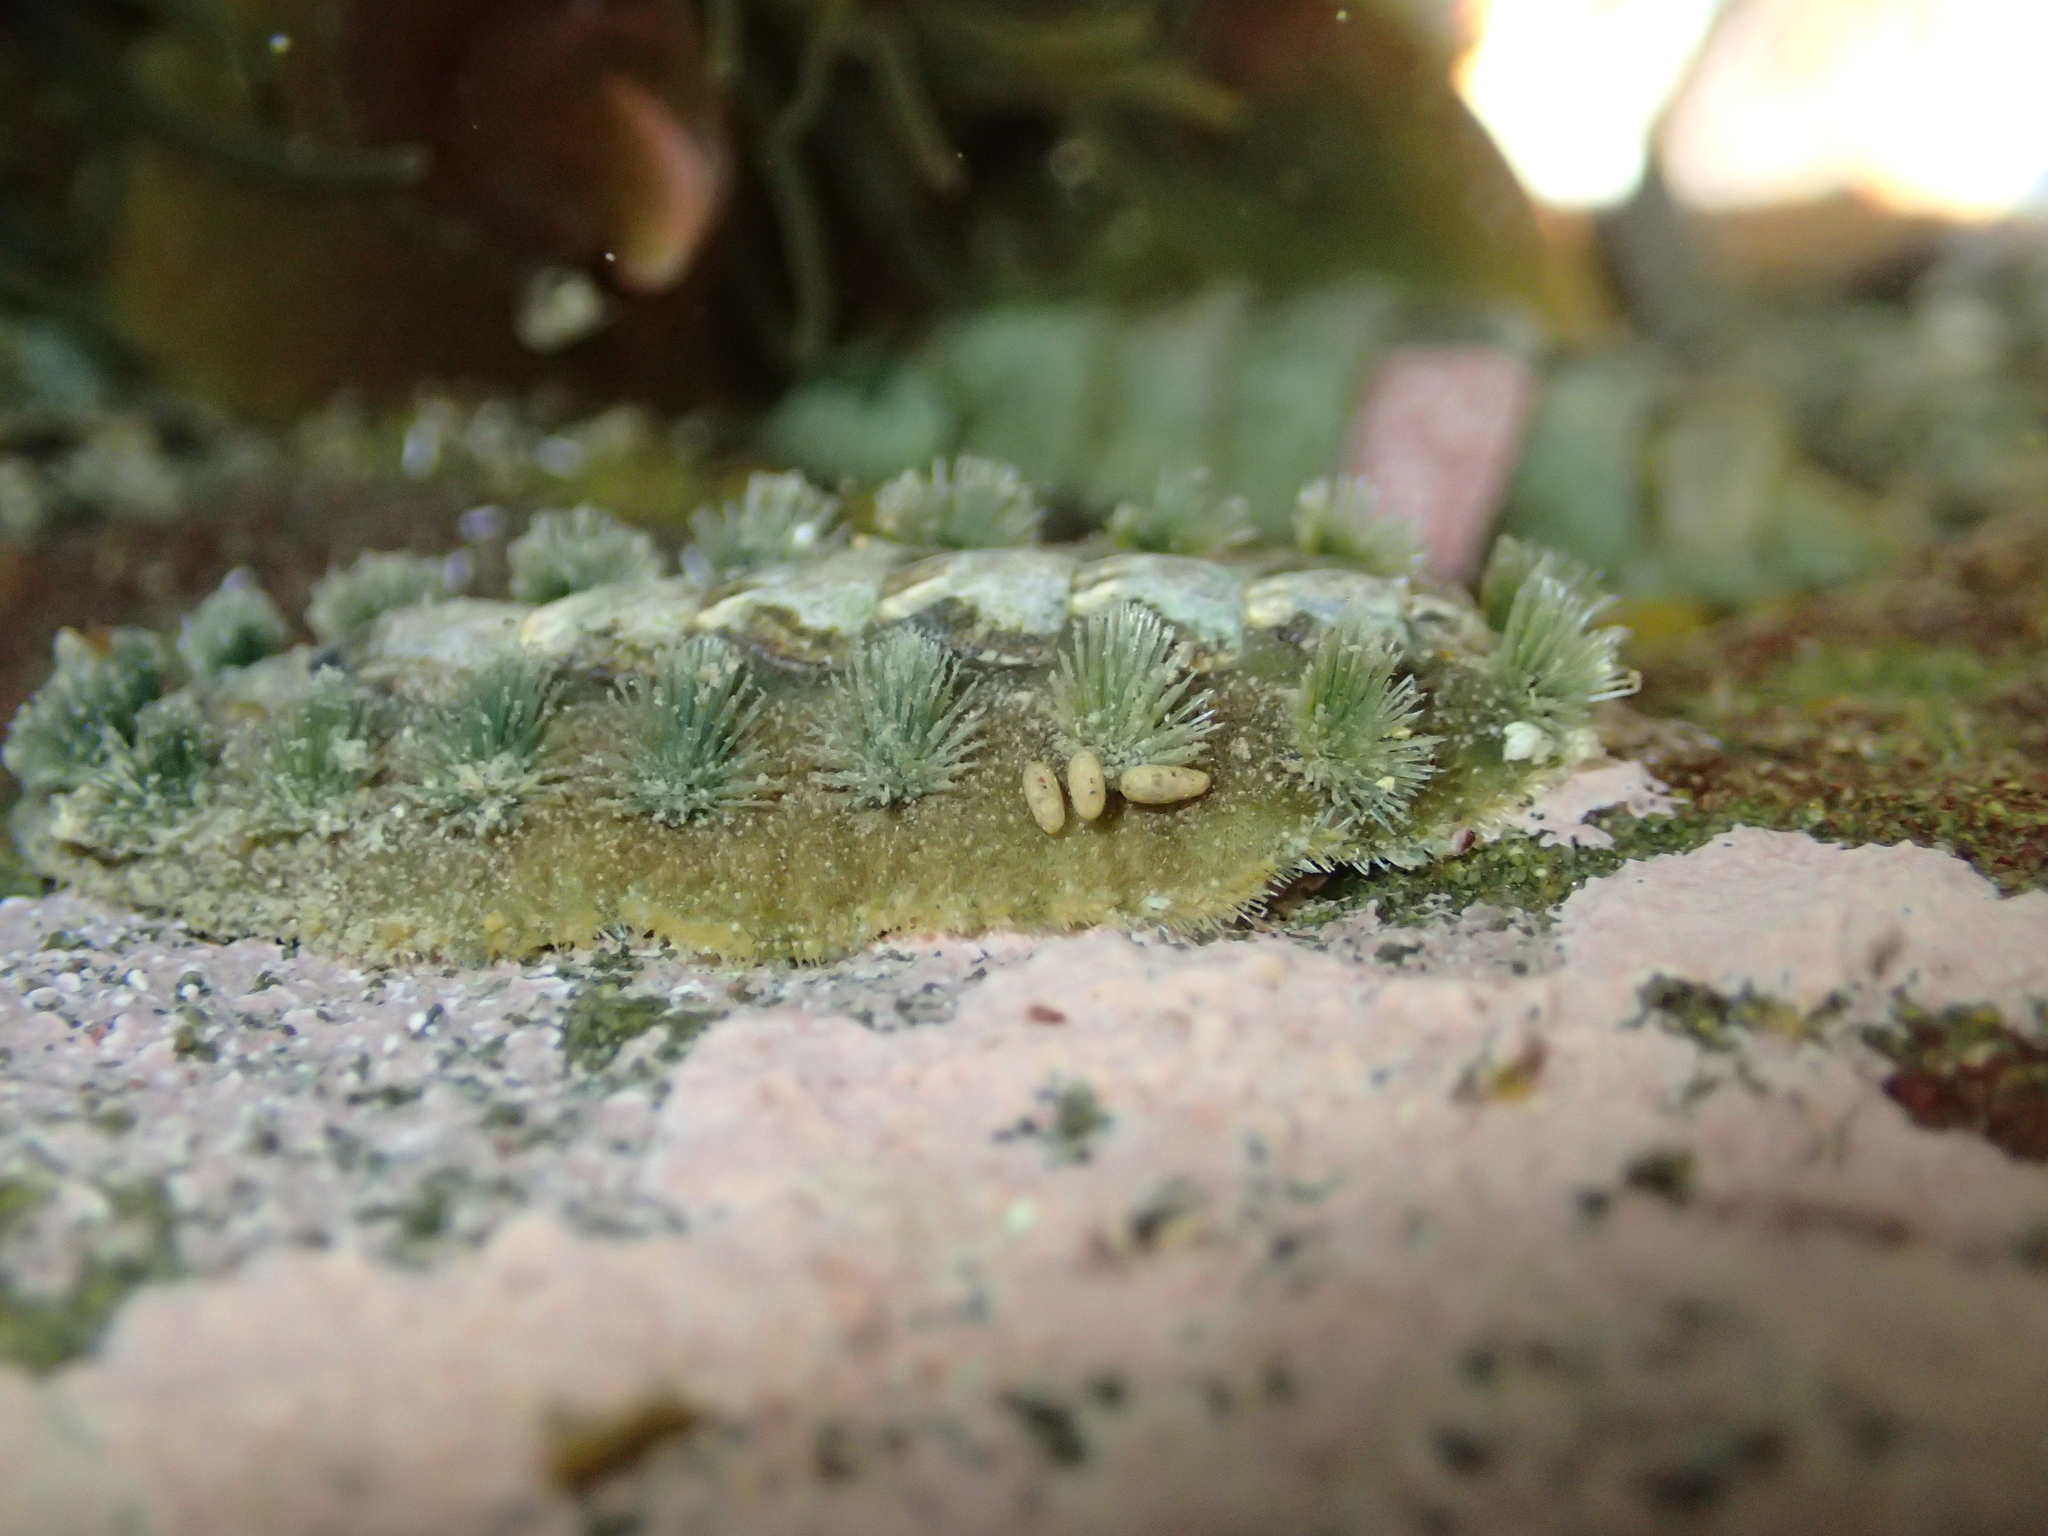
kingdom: Animalia
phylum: Mollusca
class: Polyplacophora
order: Chitonida
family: Acanthochitonidae
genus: Acanthochitona
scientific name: Acanthochitona zelandica
